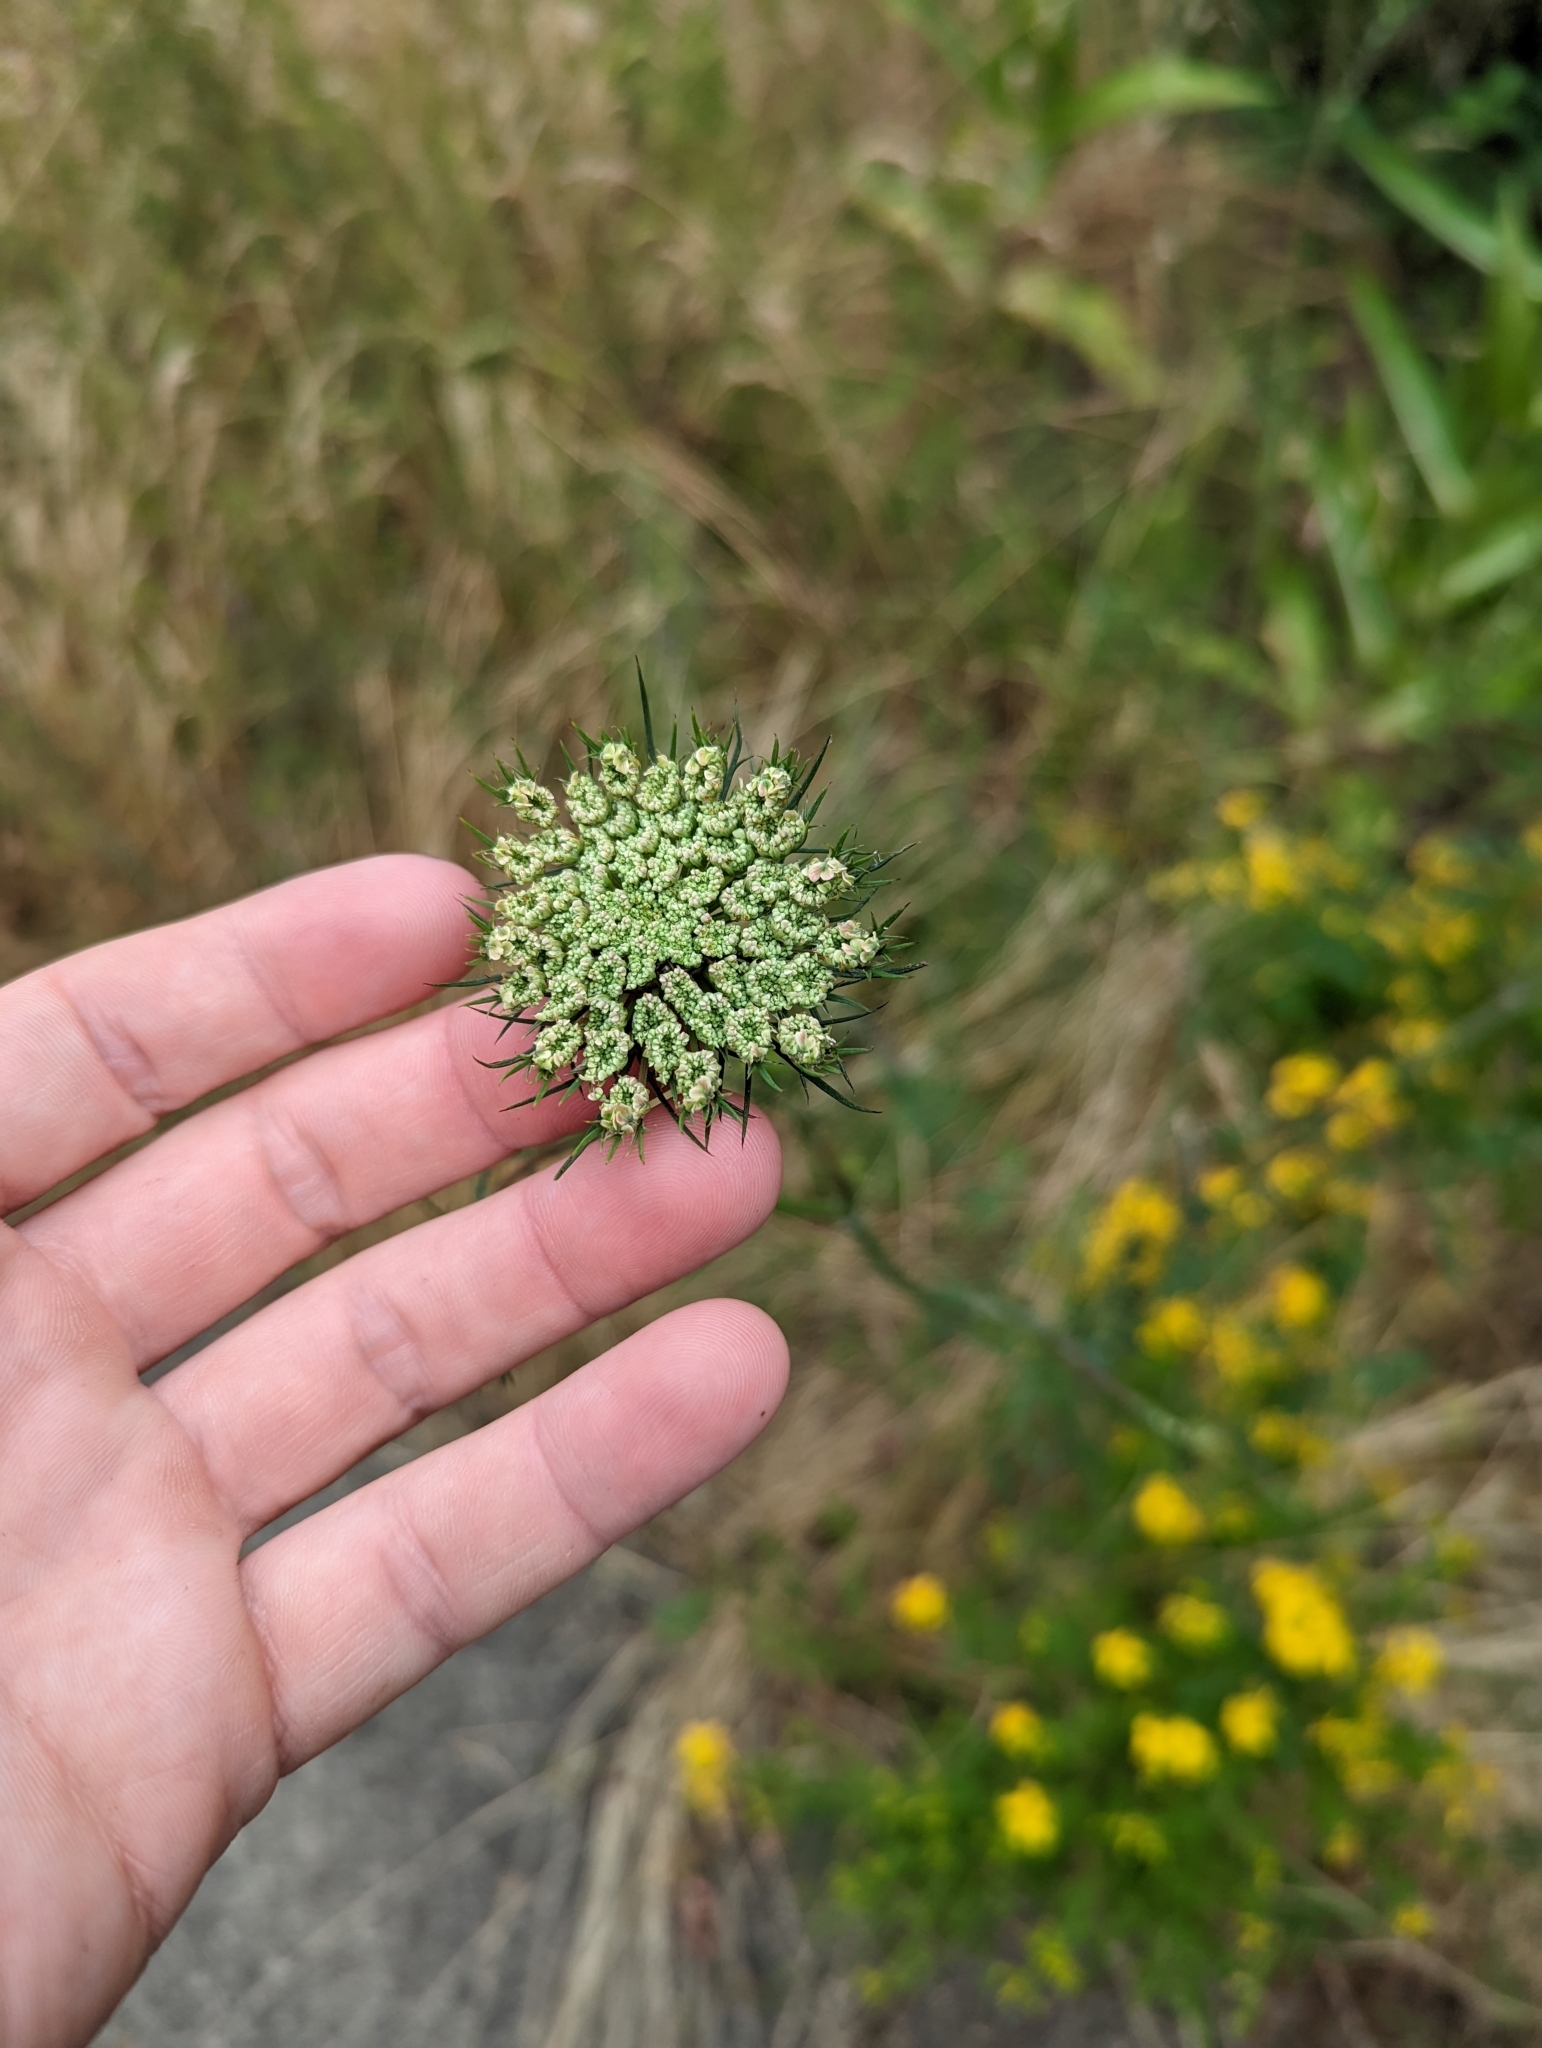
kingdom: Plantae
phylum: Tracheophyta
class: Magnoliopsida
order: Apiales
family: Apiaceae
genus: Daucus
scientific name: Daucus carota
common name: Wild carrot
